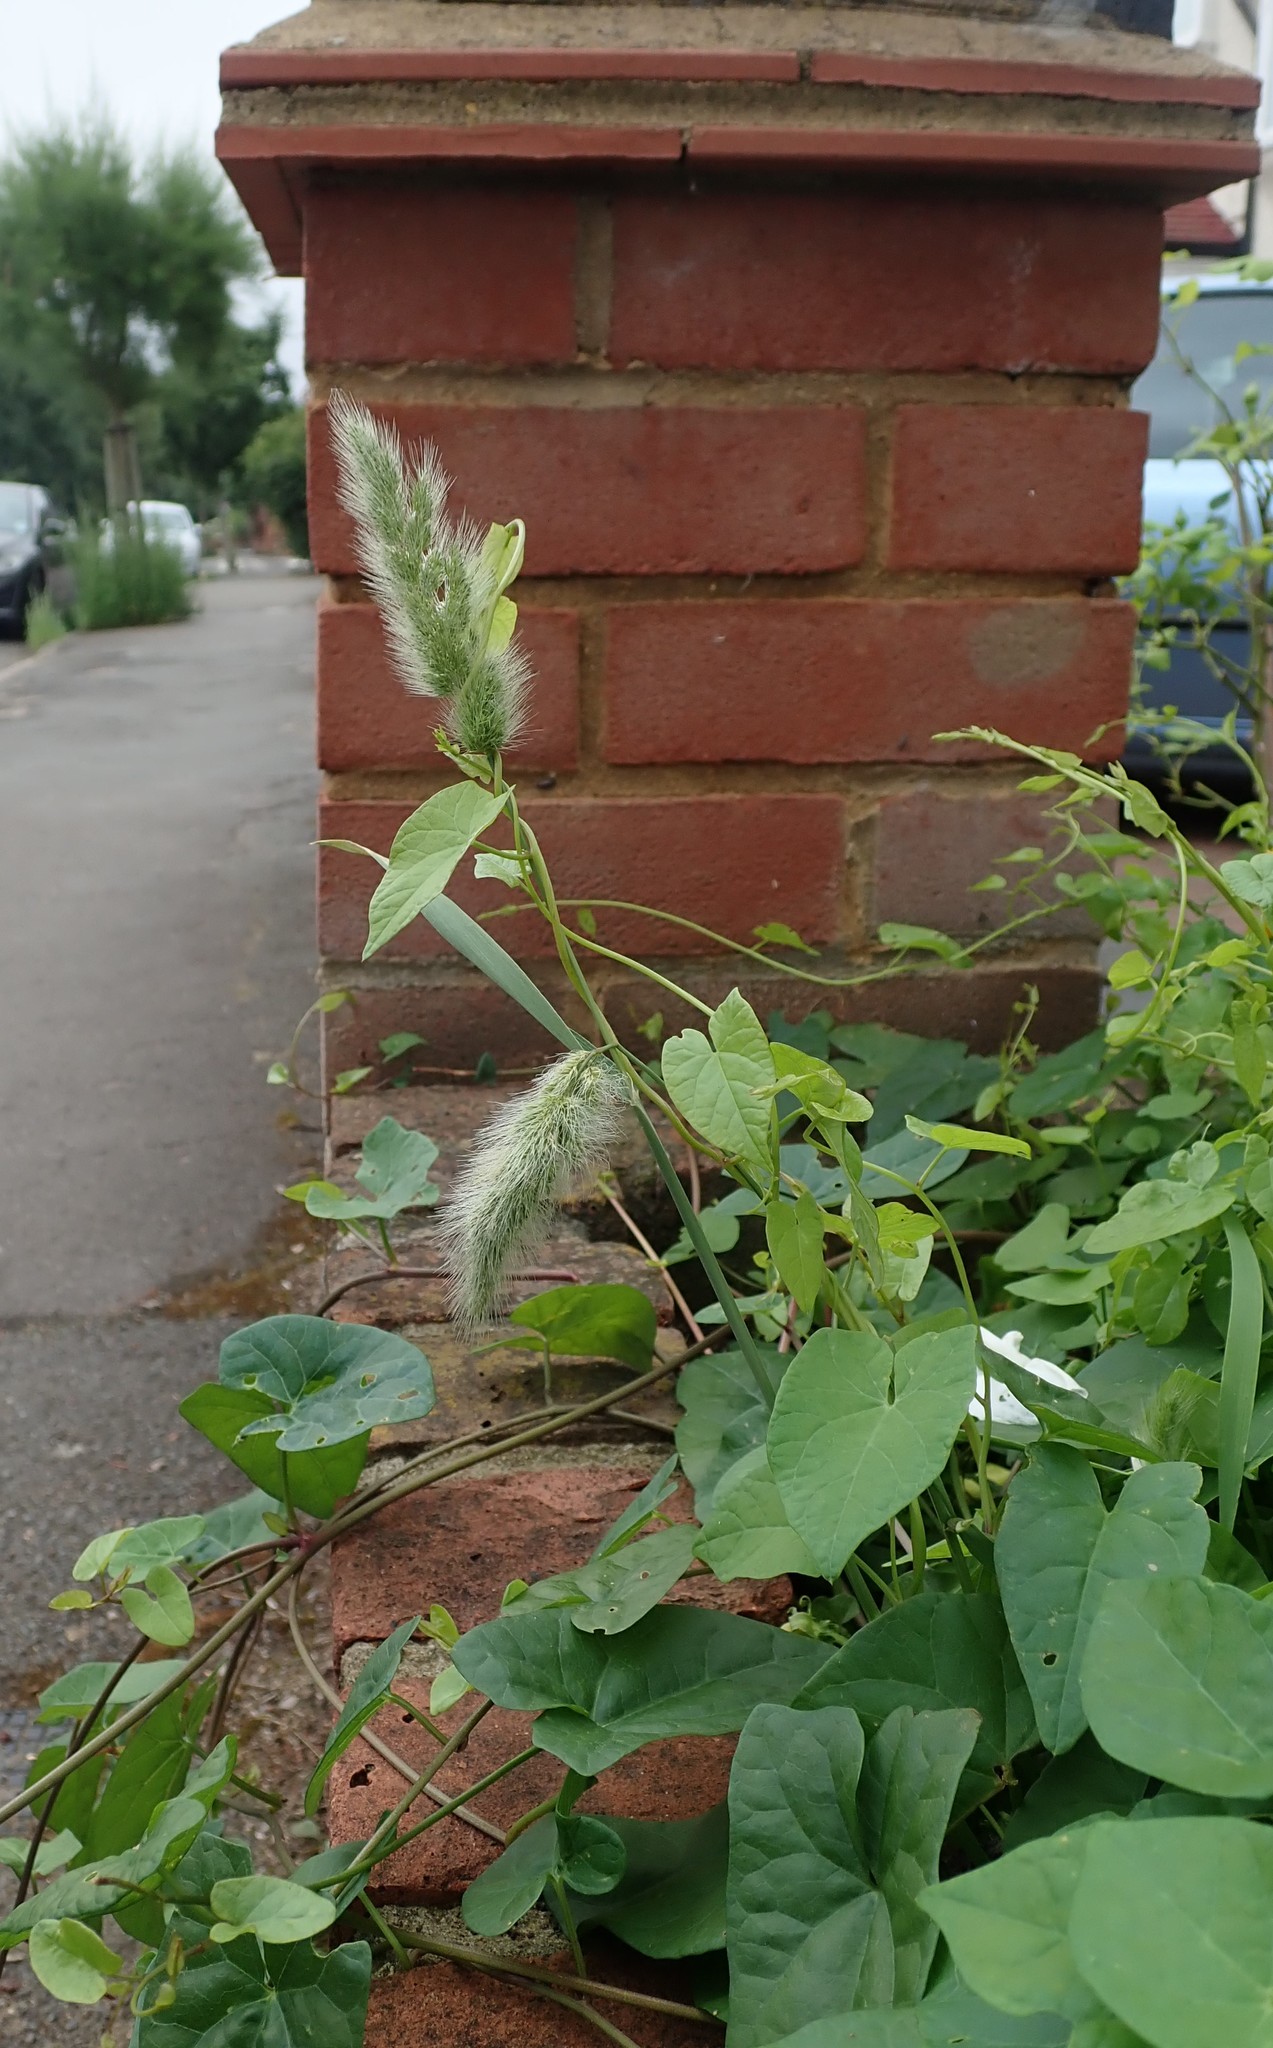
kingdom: Plantae
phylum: Tracheophyta
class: Liliopsida
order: Poales
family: Poaceae
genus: Polypogon
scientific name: Polypogon monspeliensis
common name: Annual rabbitsfoot grass
